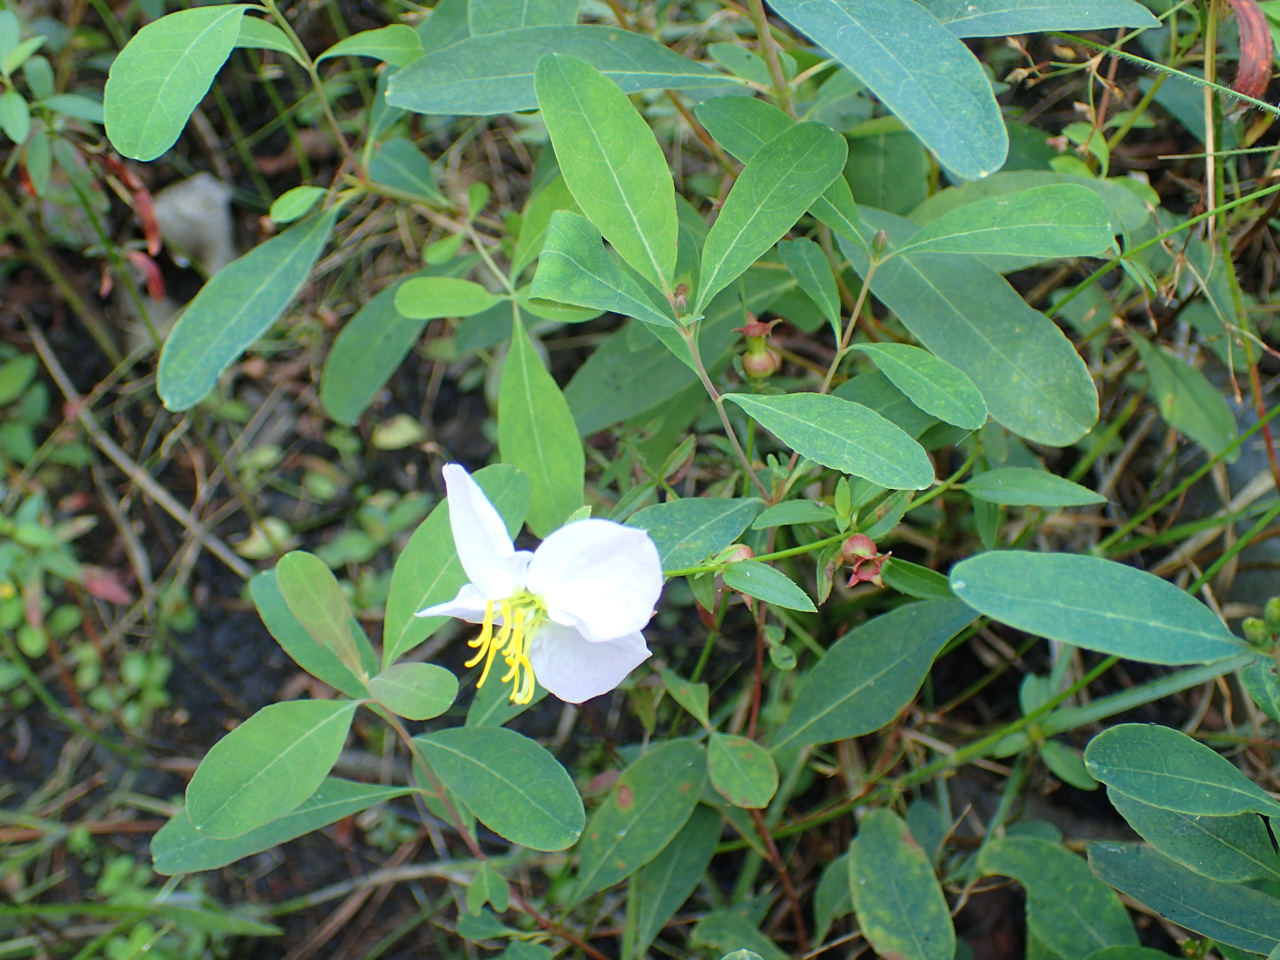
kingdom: Plantae
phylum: Tracheophyta
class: Magnoliopsida
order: Myrtales
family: Melastomataceae
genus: Rhexia
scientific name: Rhexia mariana
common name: Dull meadow-pitcher
